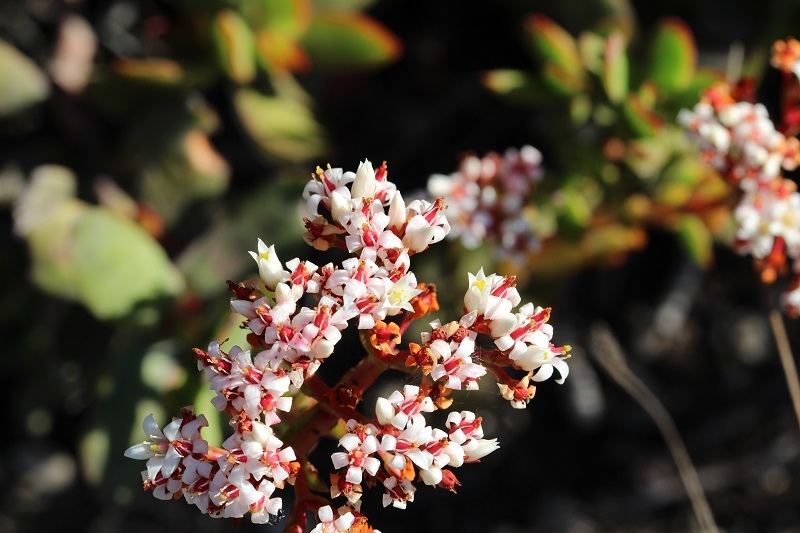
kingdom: Plantae
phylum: Tracheophyta
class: Magnoliopsida
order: Saxifragales
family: Crassulaceae
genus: Crassula
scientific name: Crassula rubricaulis
